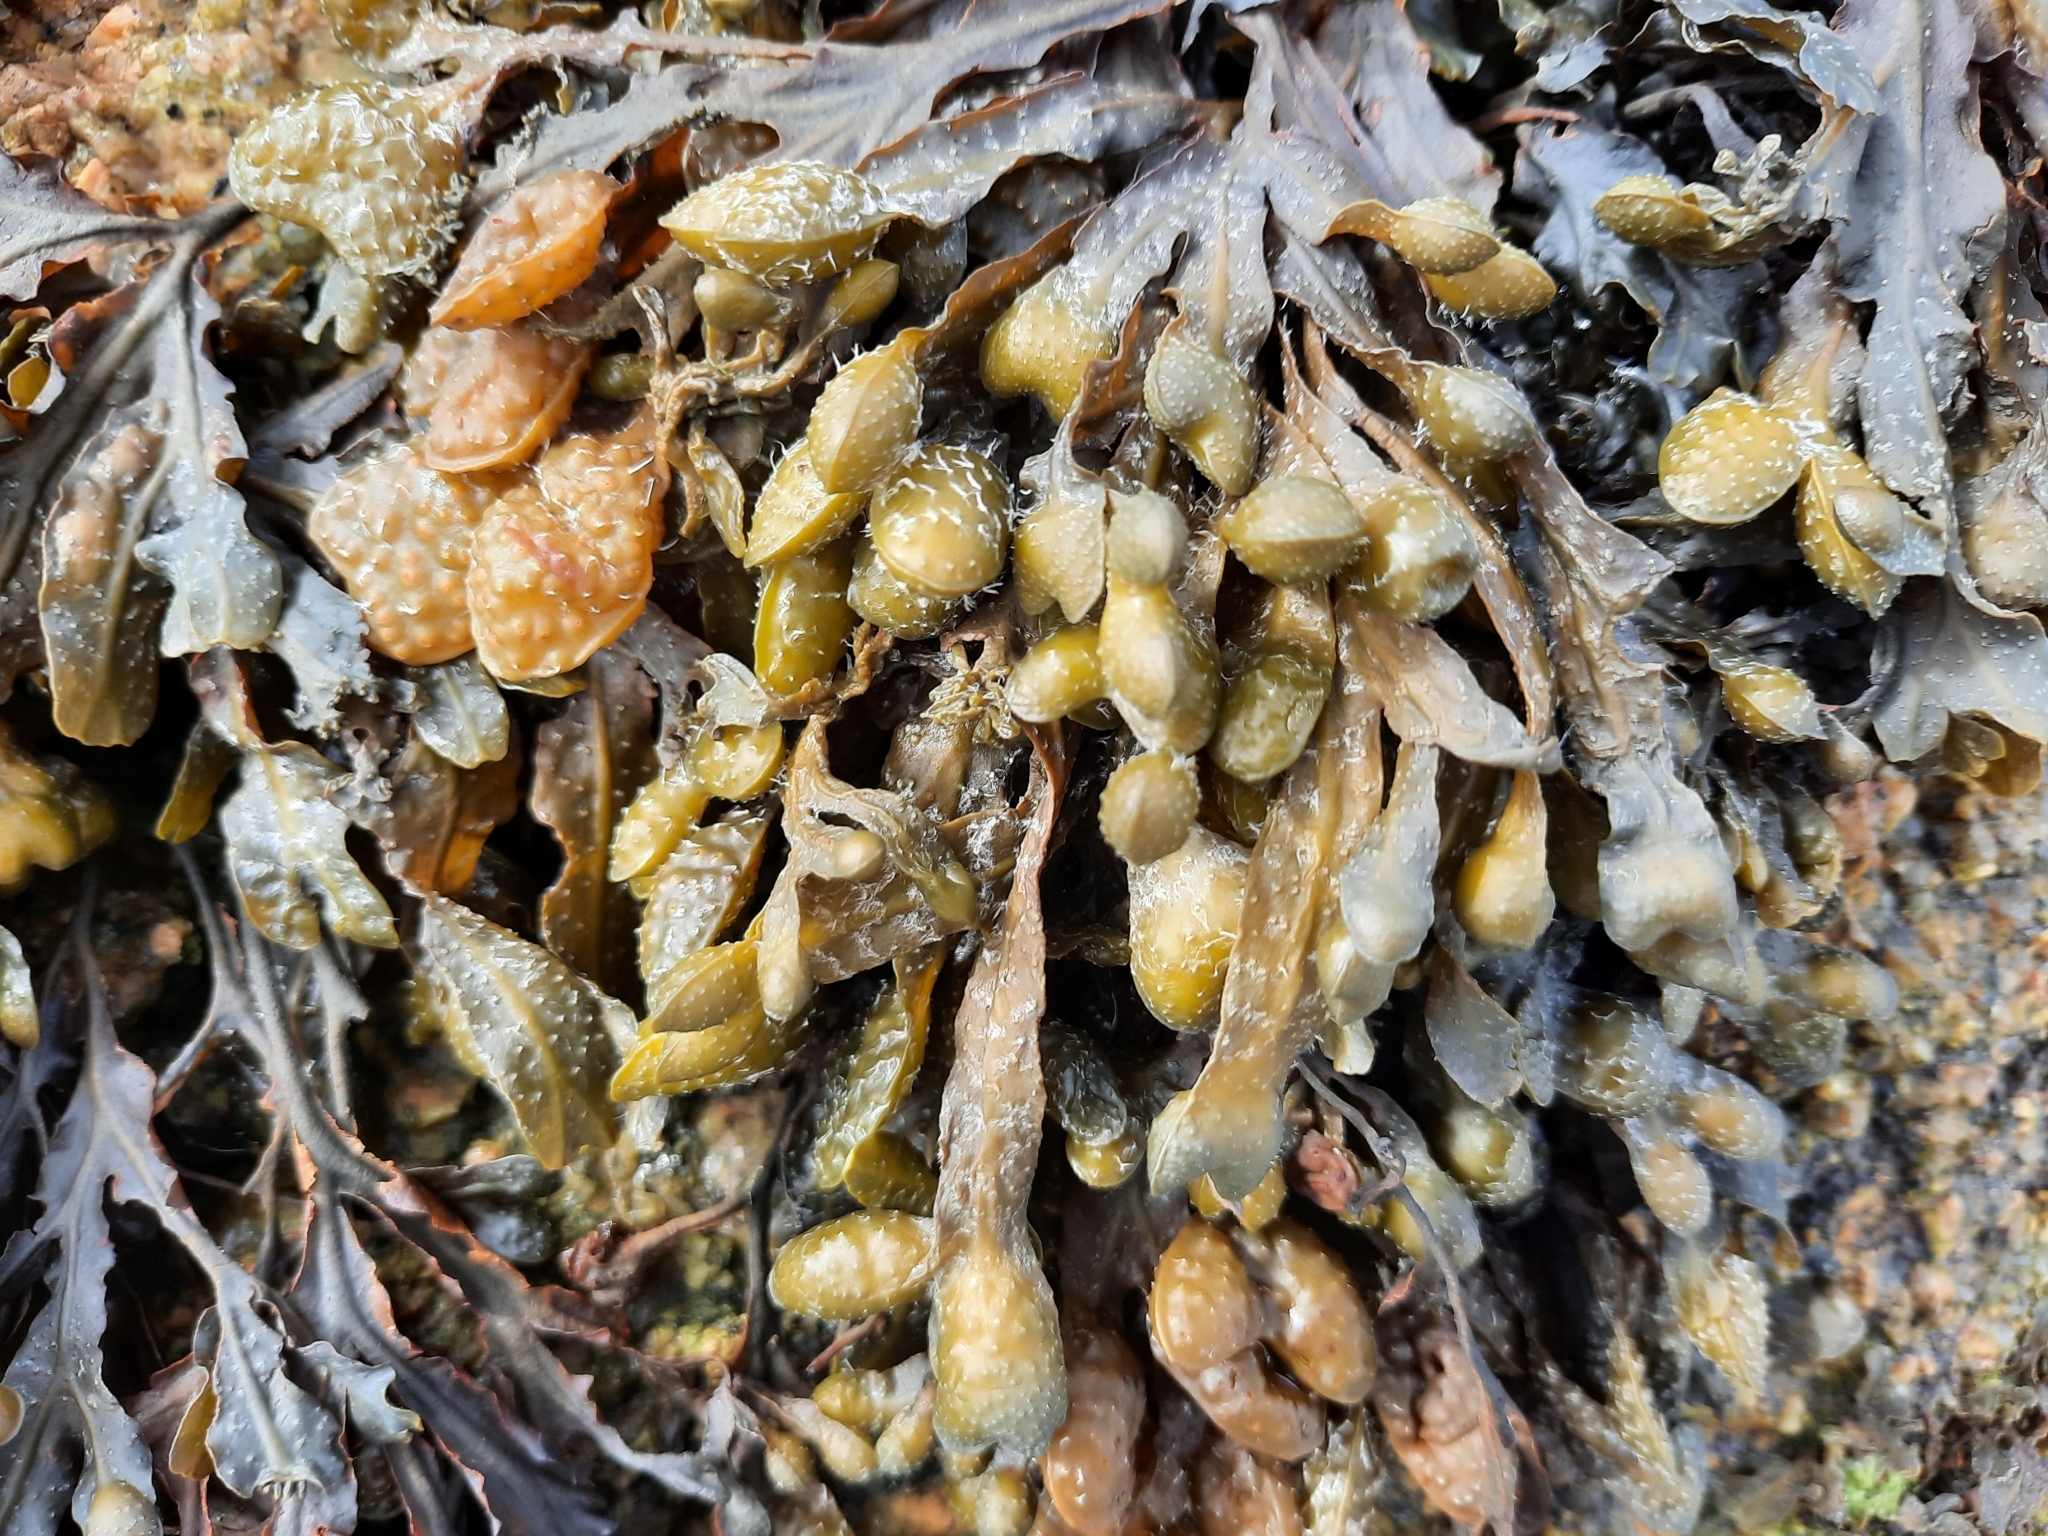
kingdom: Chromista
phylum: Ochrophyta
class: Phaeophyceae
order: Fucales
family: Fucaceae
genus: Fucus
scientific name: Fucus spiralis
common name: Spiral wrack
